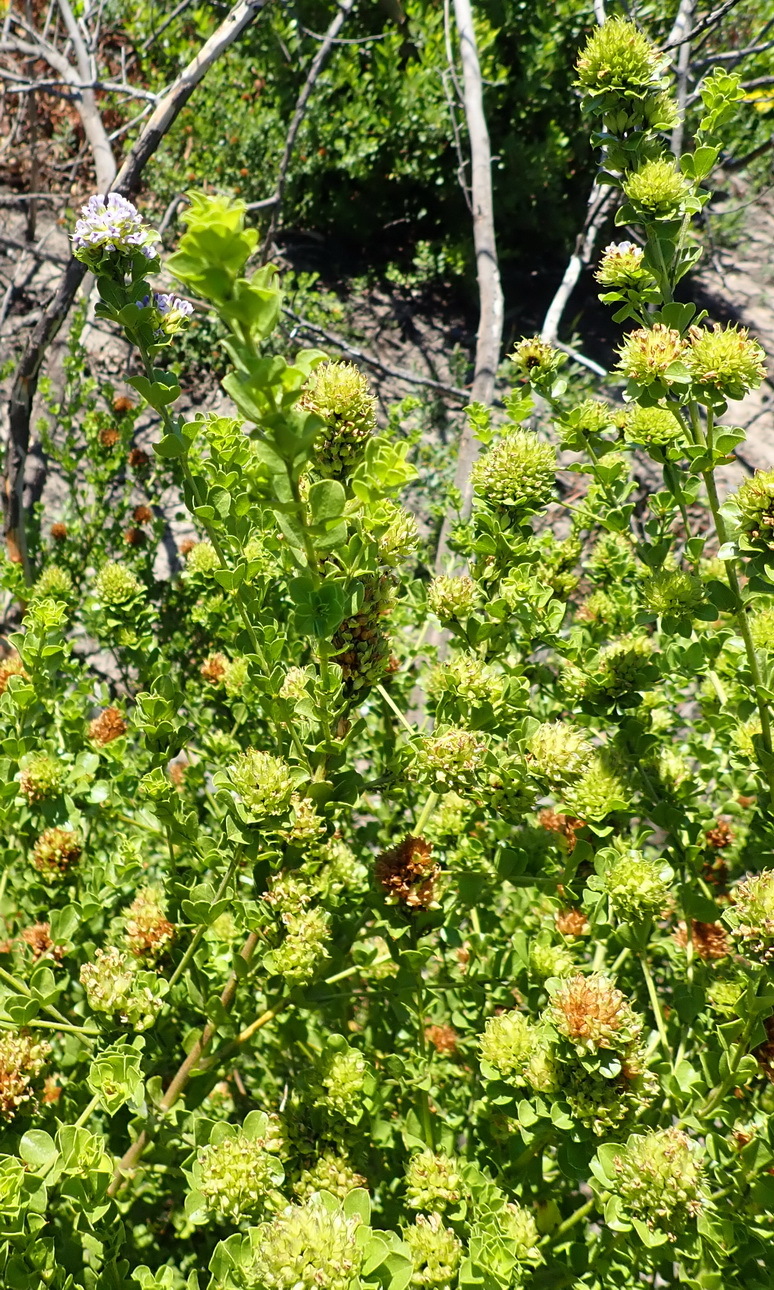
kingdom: Plantae
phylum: Tracheophyta
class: Magnoliopsida
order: Fabales
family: Fabaceae
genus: Psoralea
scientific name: Psoralea acuminata
